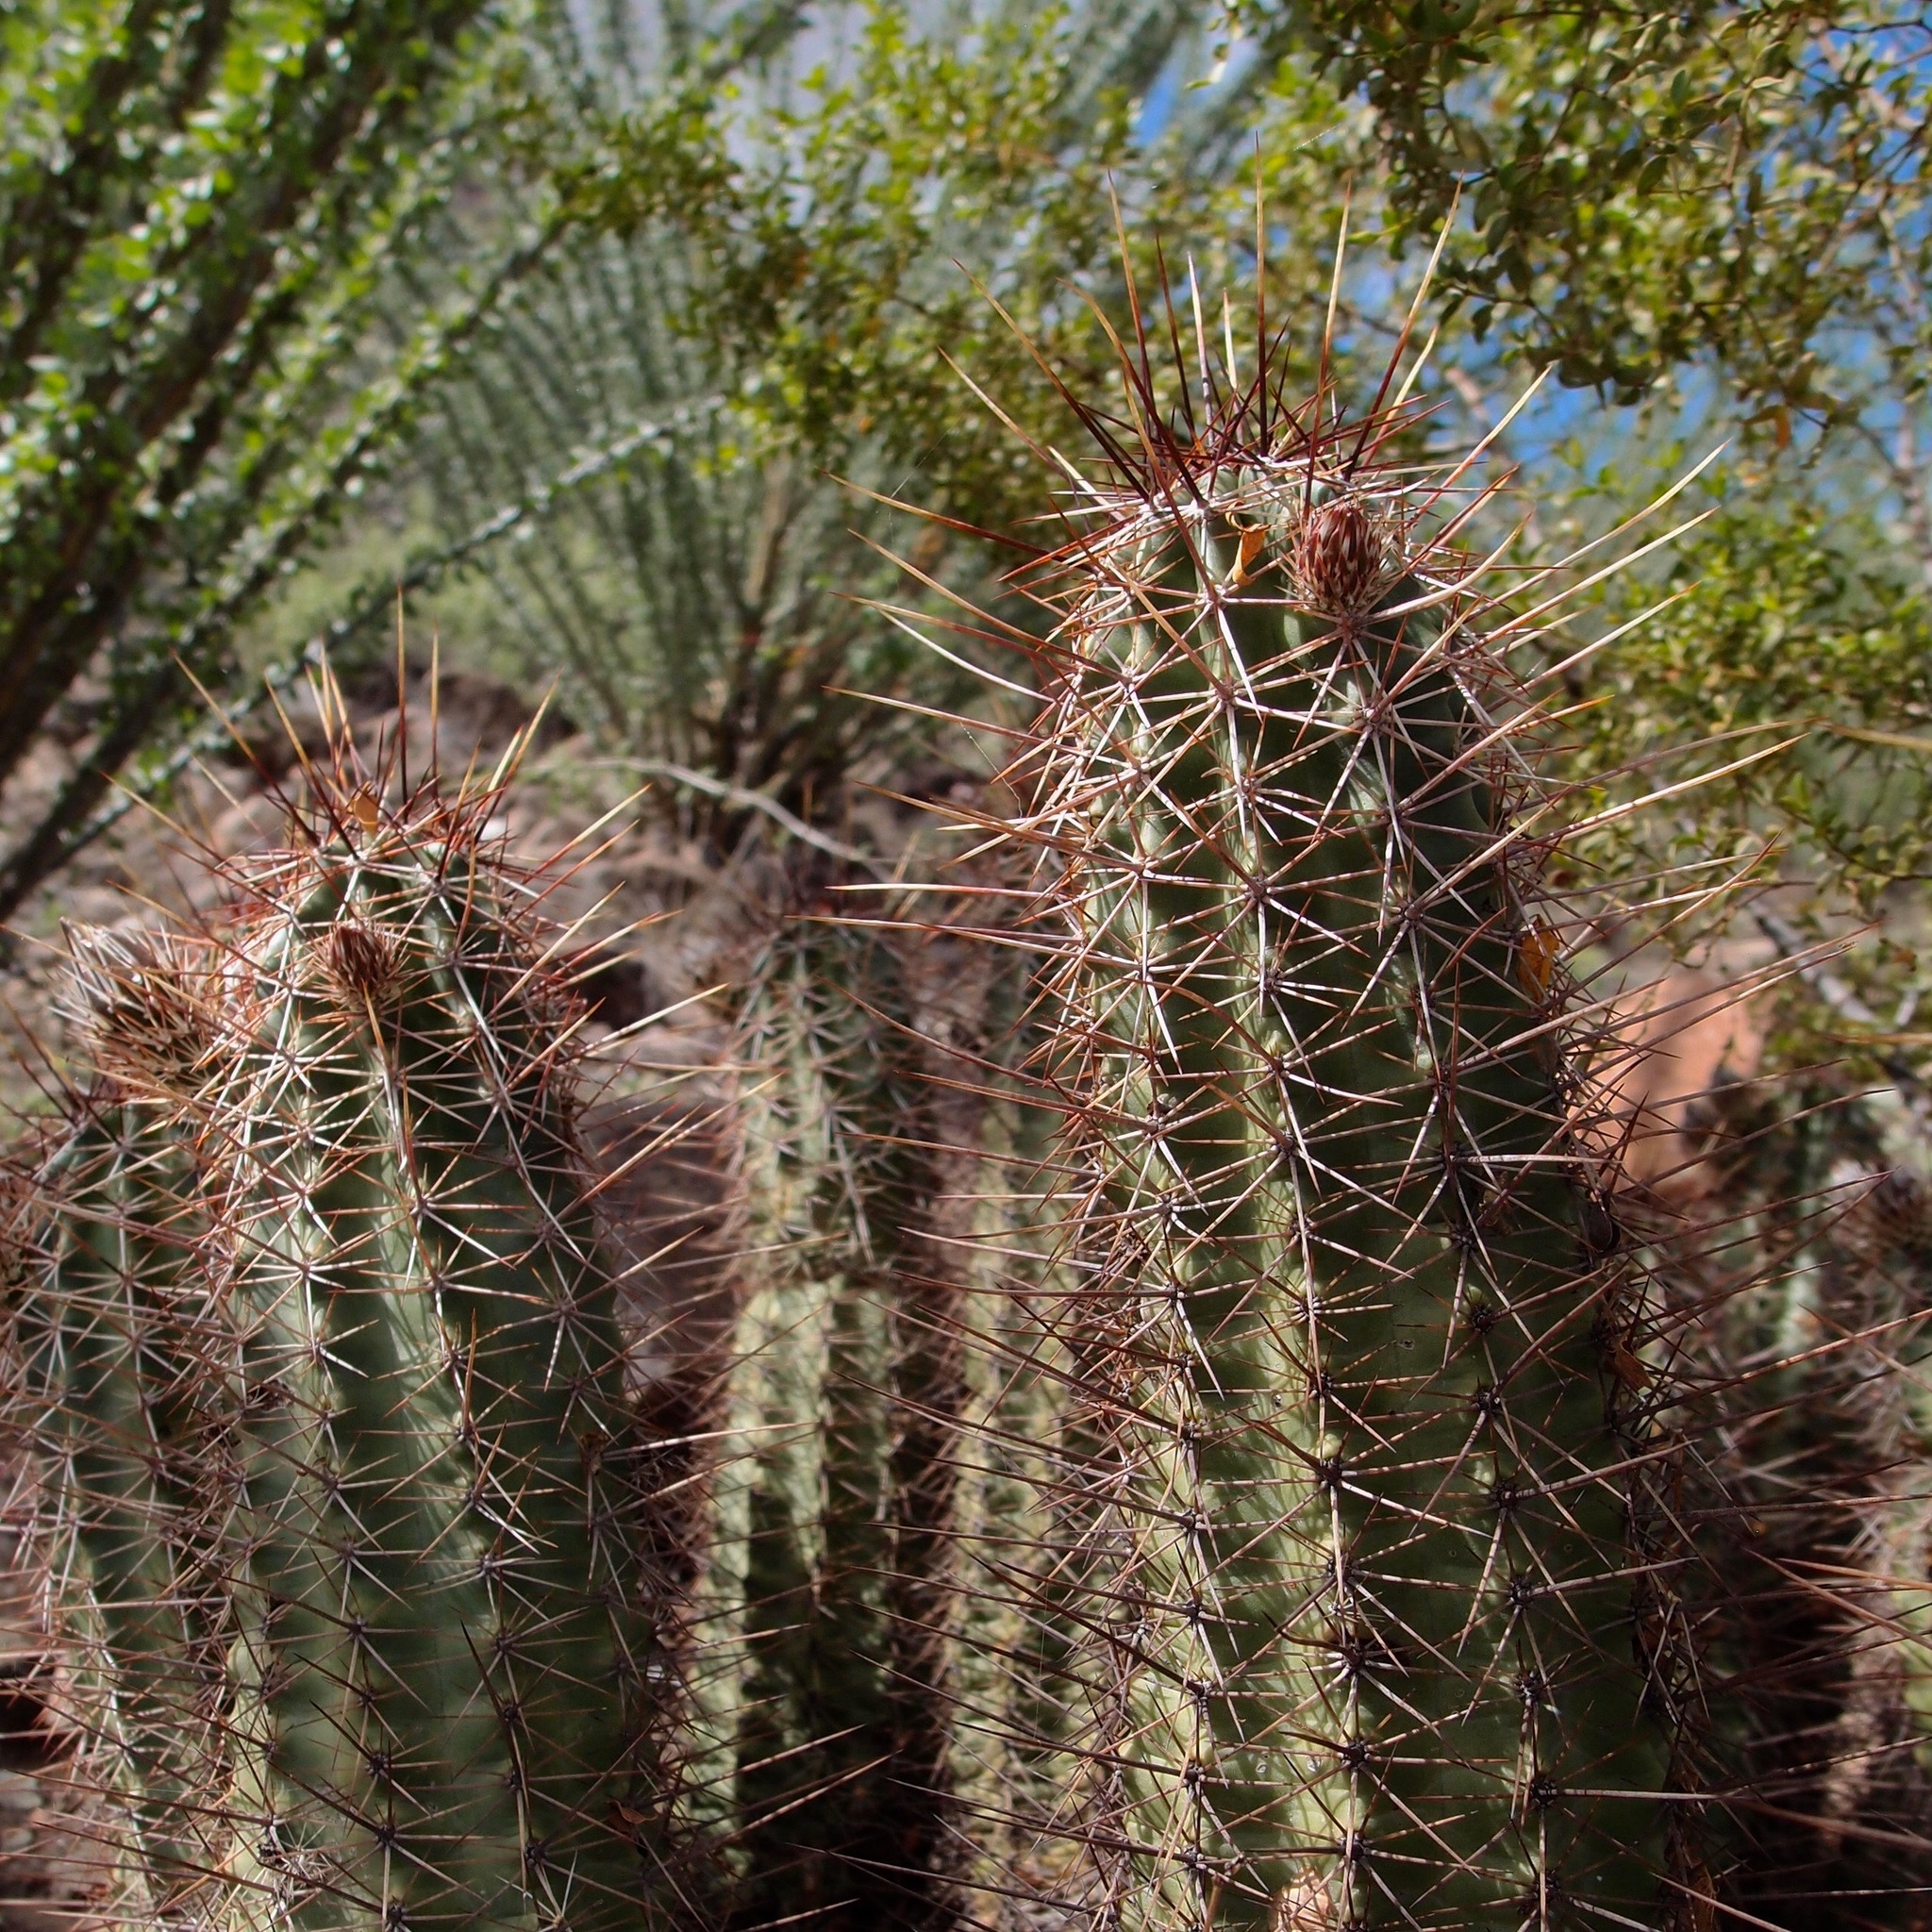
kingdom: Plantae
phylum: Tracheophyta
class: Magnoliopsida
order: Caryophyllales
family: Cactaceae
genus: Echinocereus
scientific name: Echinocereus fasciculatus
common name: Bundle hedgehog
